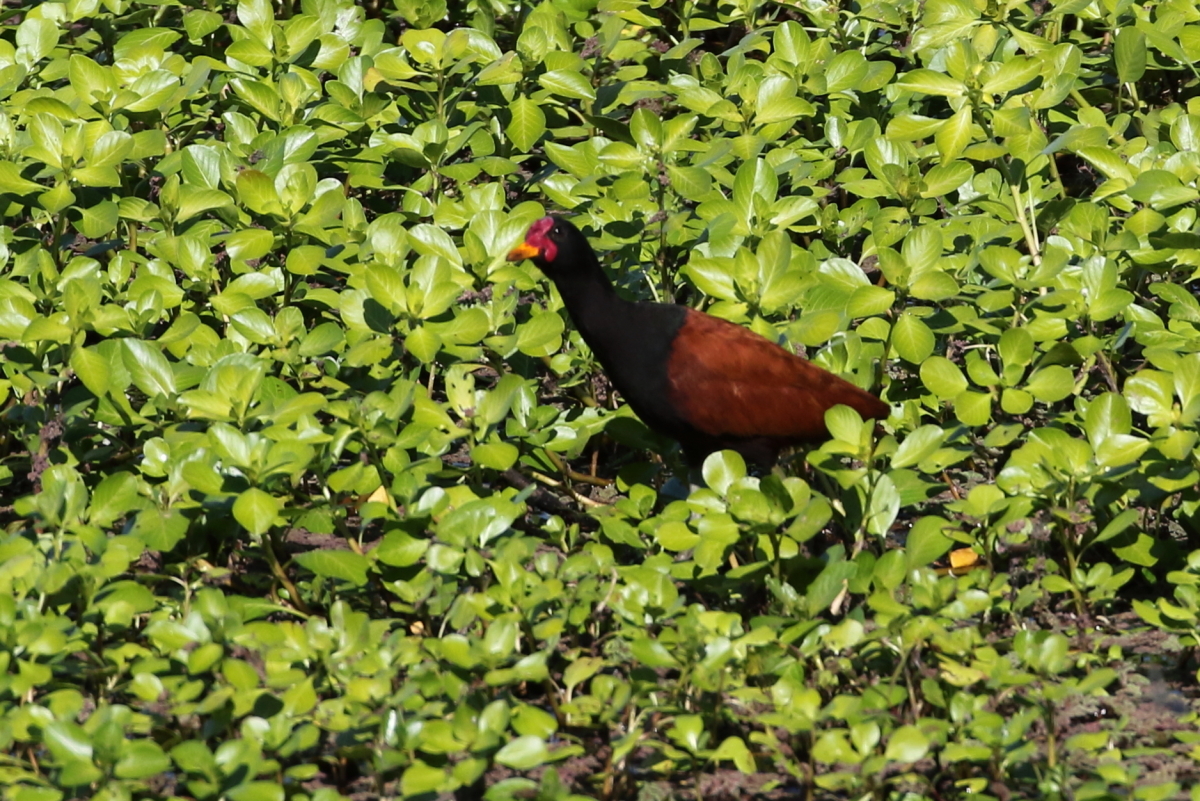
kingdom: Animalia
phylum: Chordata
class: Aves
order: Charadriiformes
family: Jacanidae
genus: Jacana
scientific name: Jacana jacana
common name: Wattled jacana
